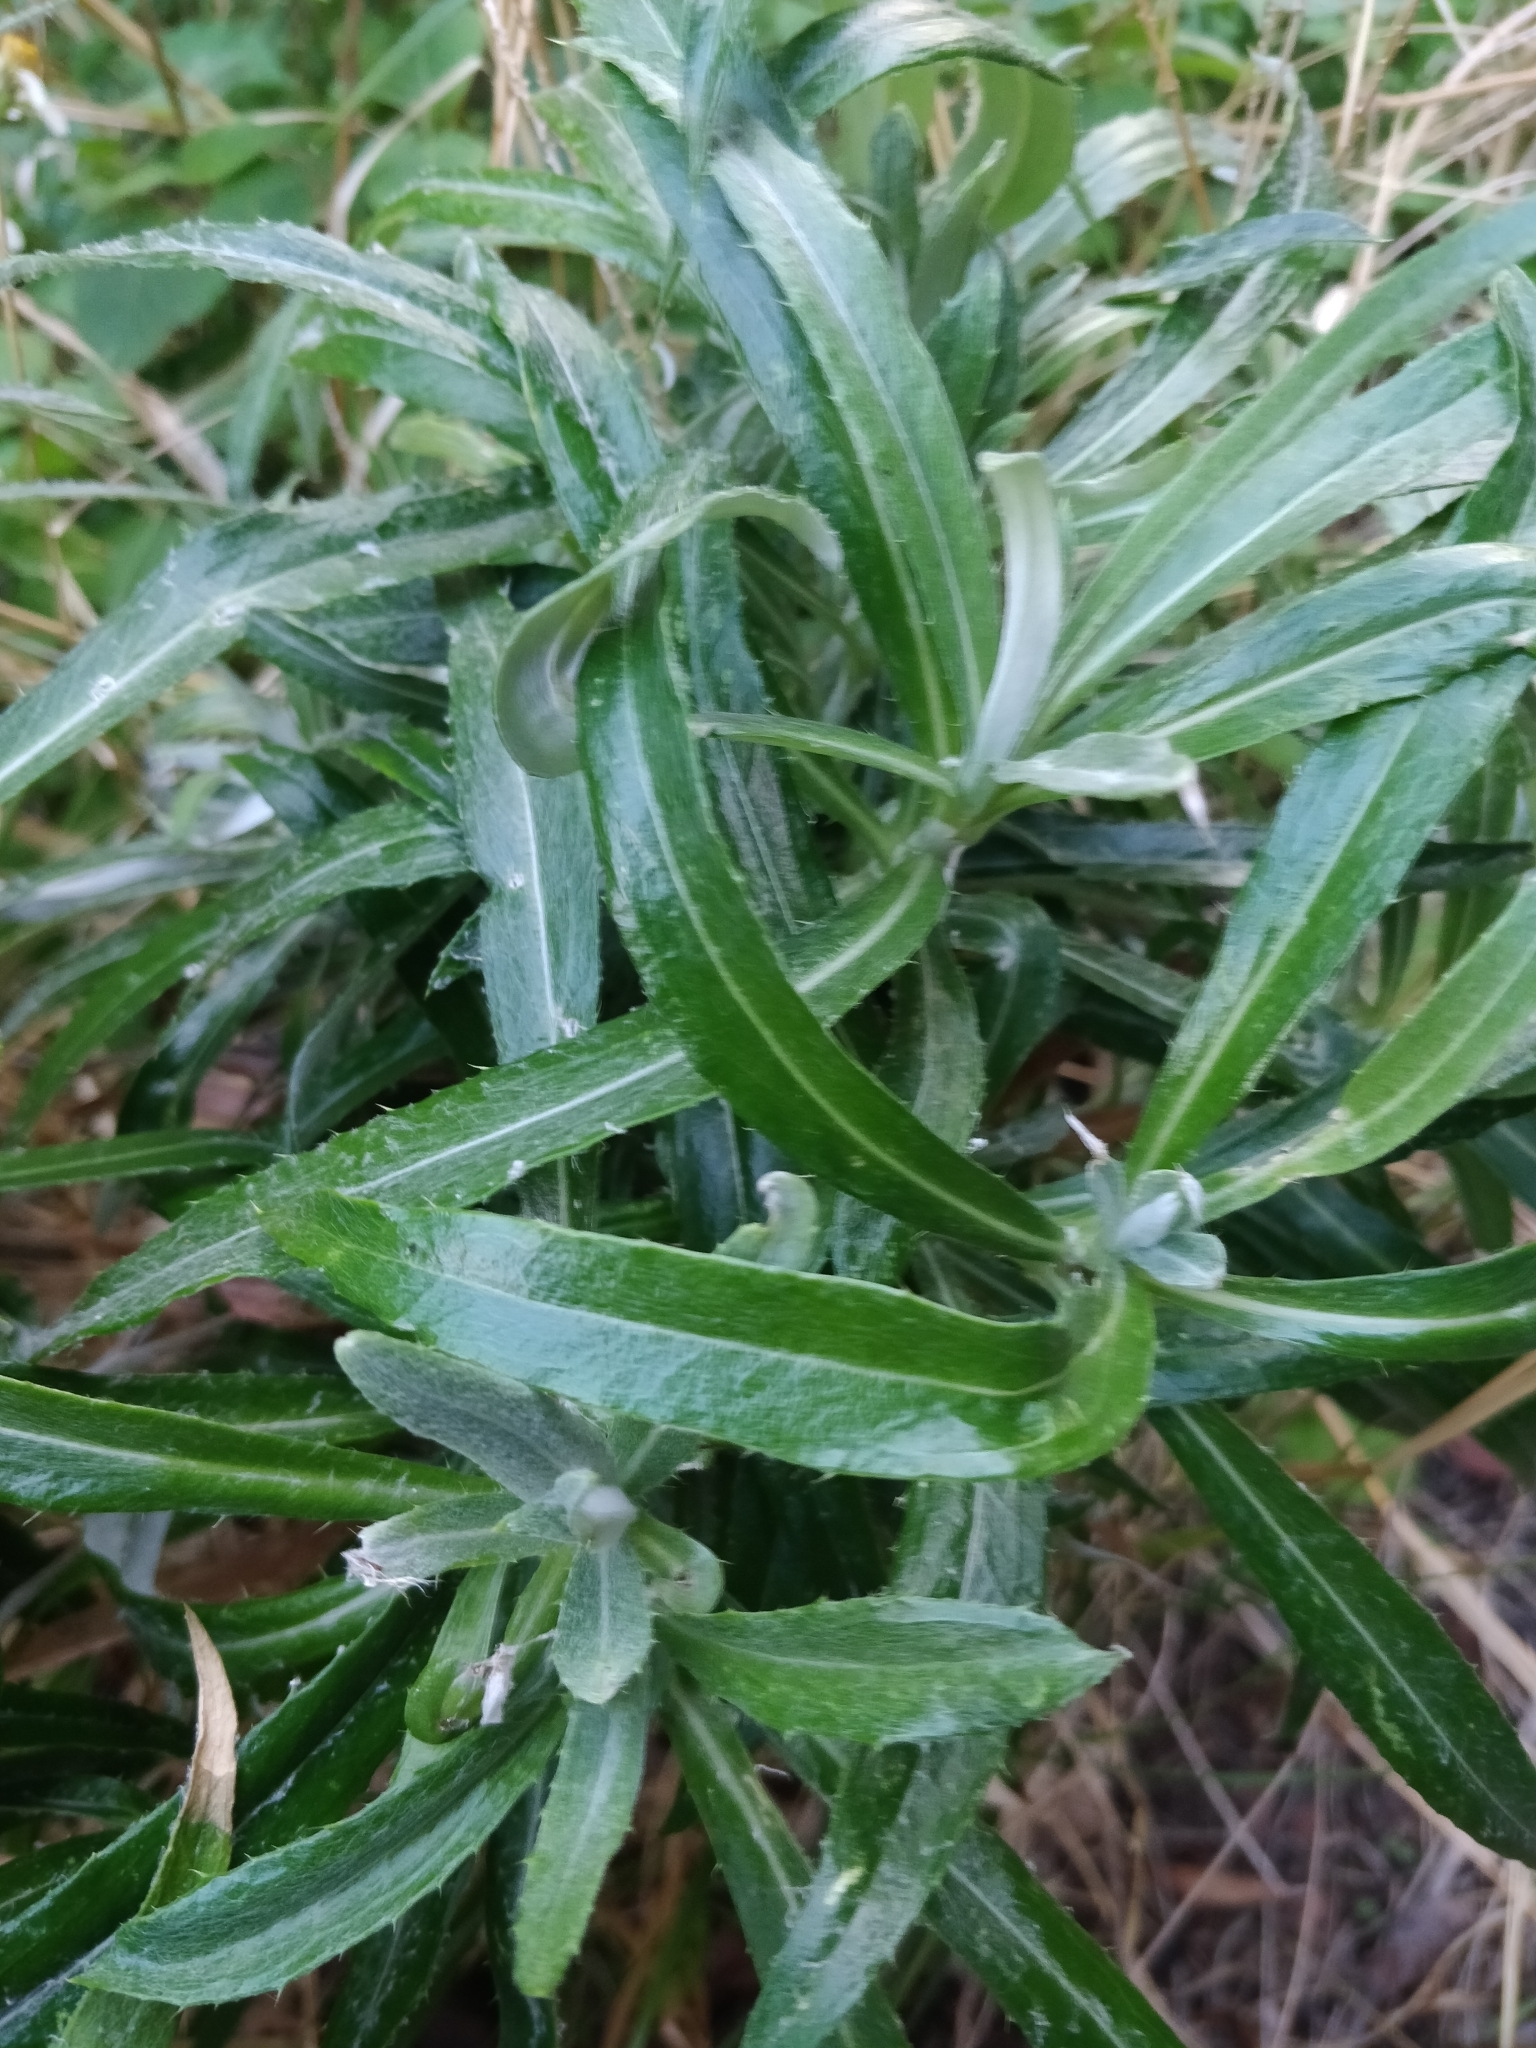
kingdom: Plantae
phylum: Tracheophyta
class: Magnoliopsida
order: Asterales
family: Asteraceae
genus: Carlina
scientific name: Carlina salicifolia
